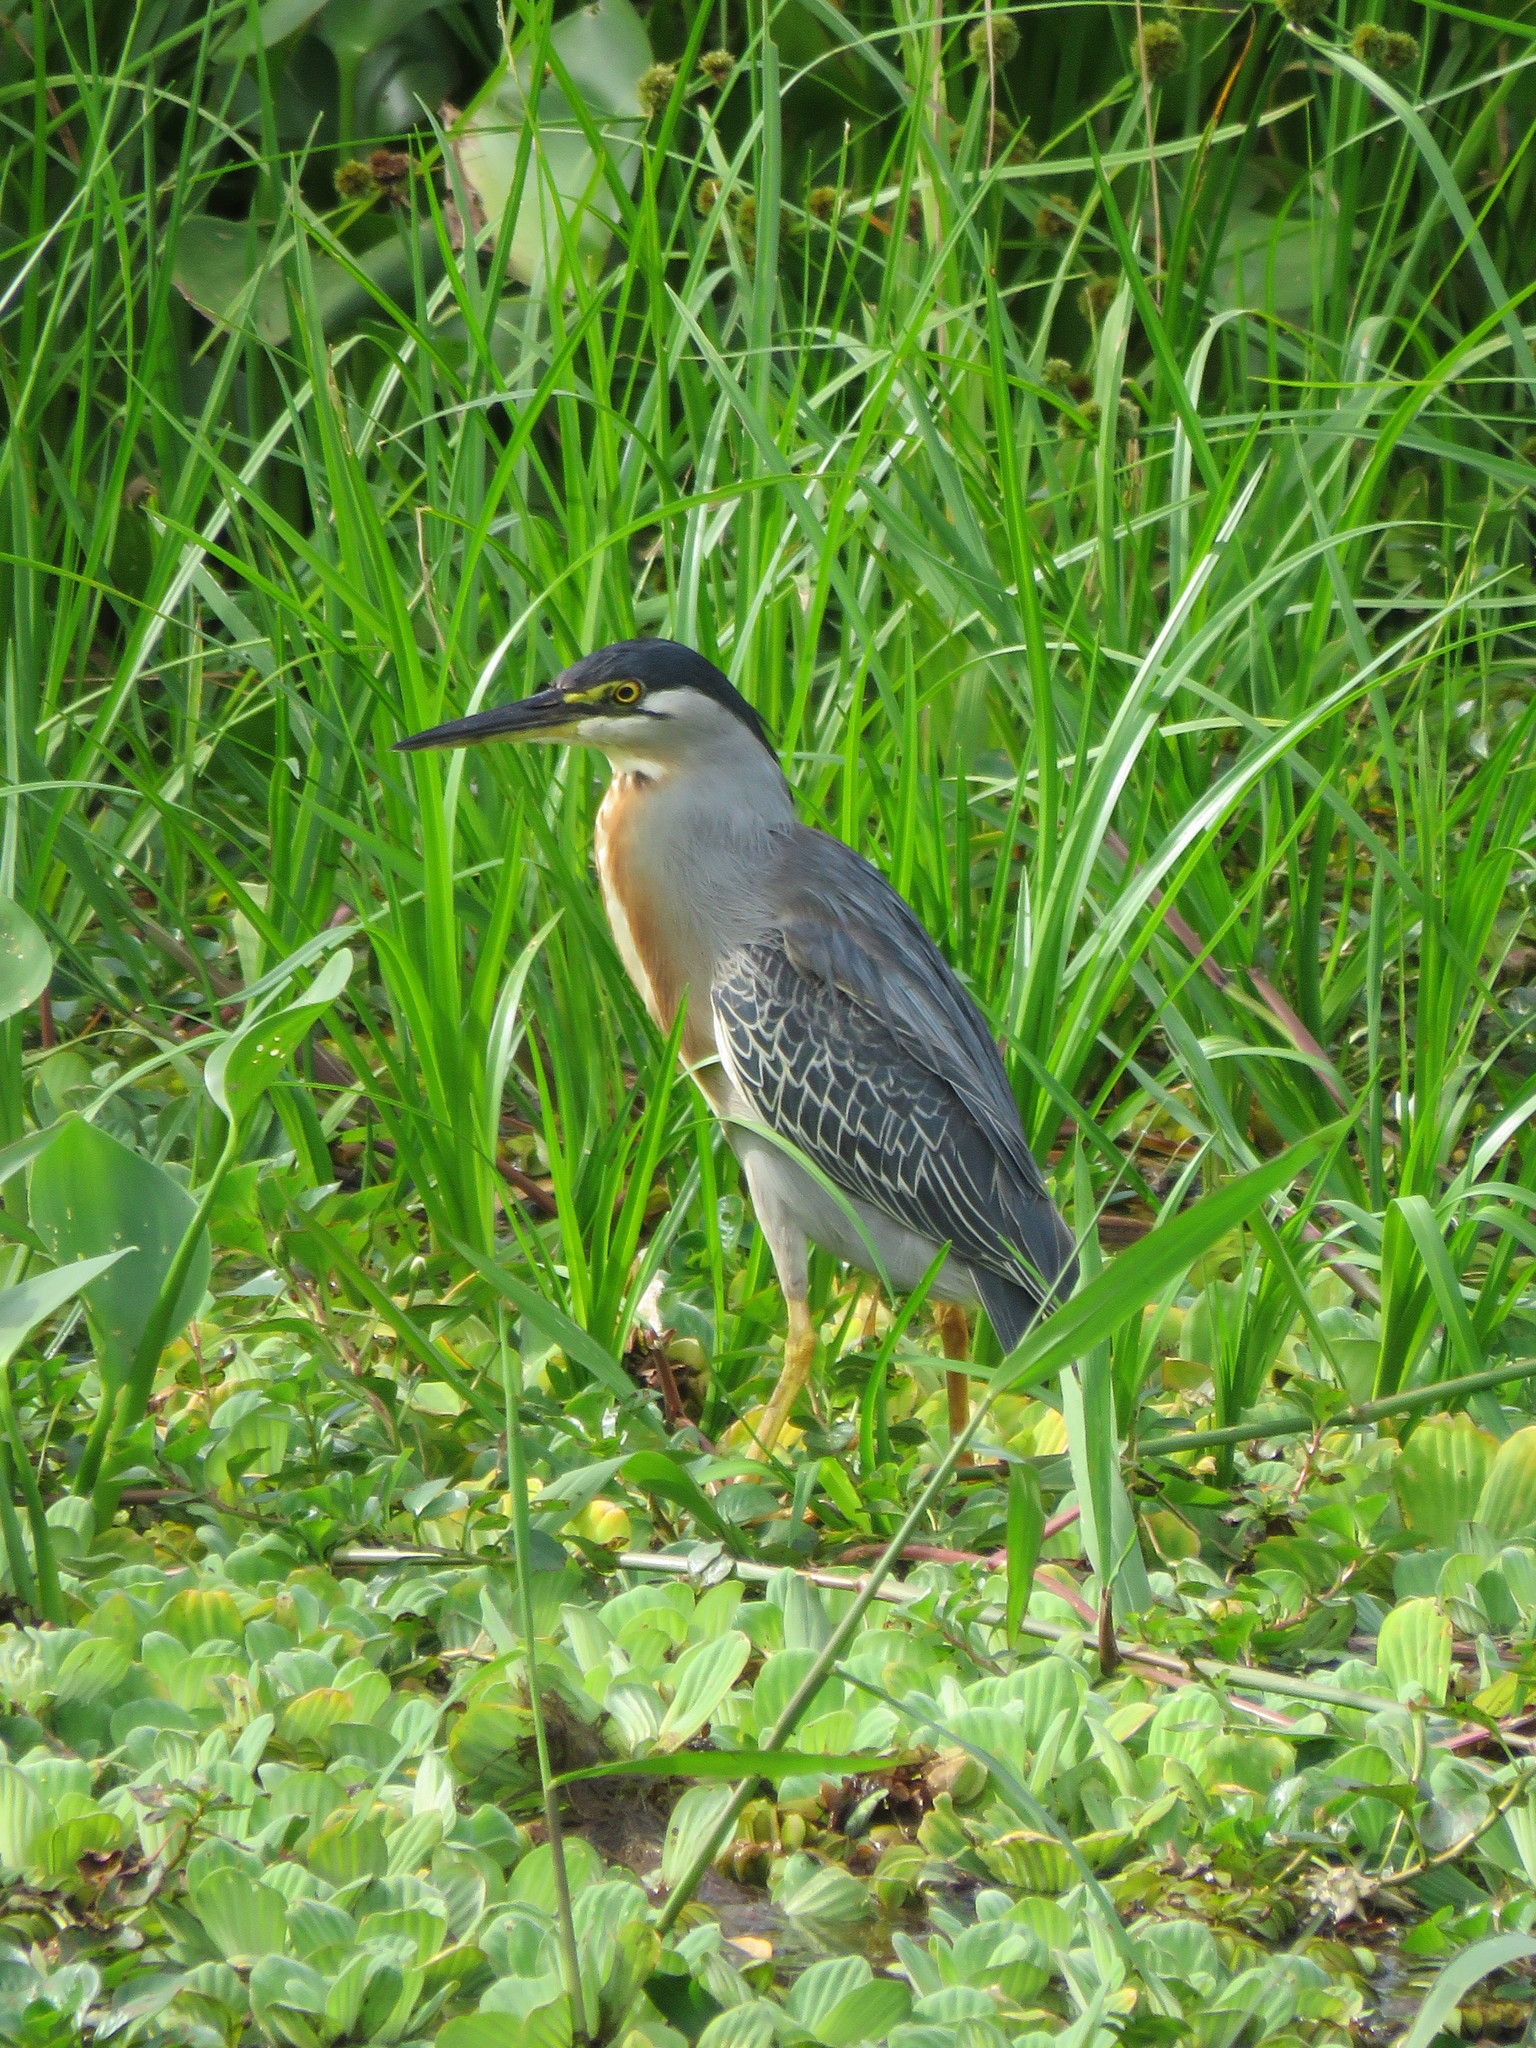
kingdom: Animalia
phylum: Chordata
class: Aves
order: Pelecaniformes
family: Ardeidae
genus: Butorides
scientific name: Butorides striata
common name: Striated heron
